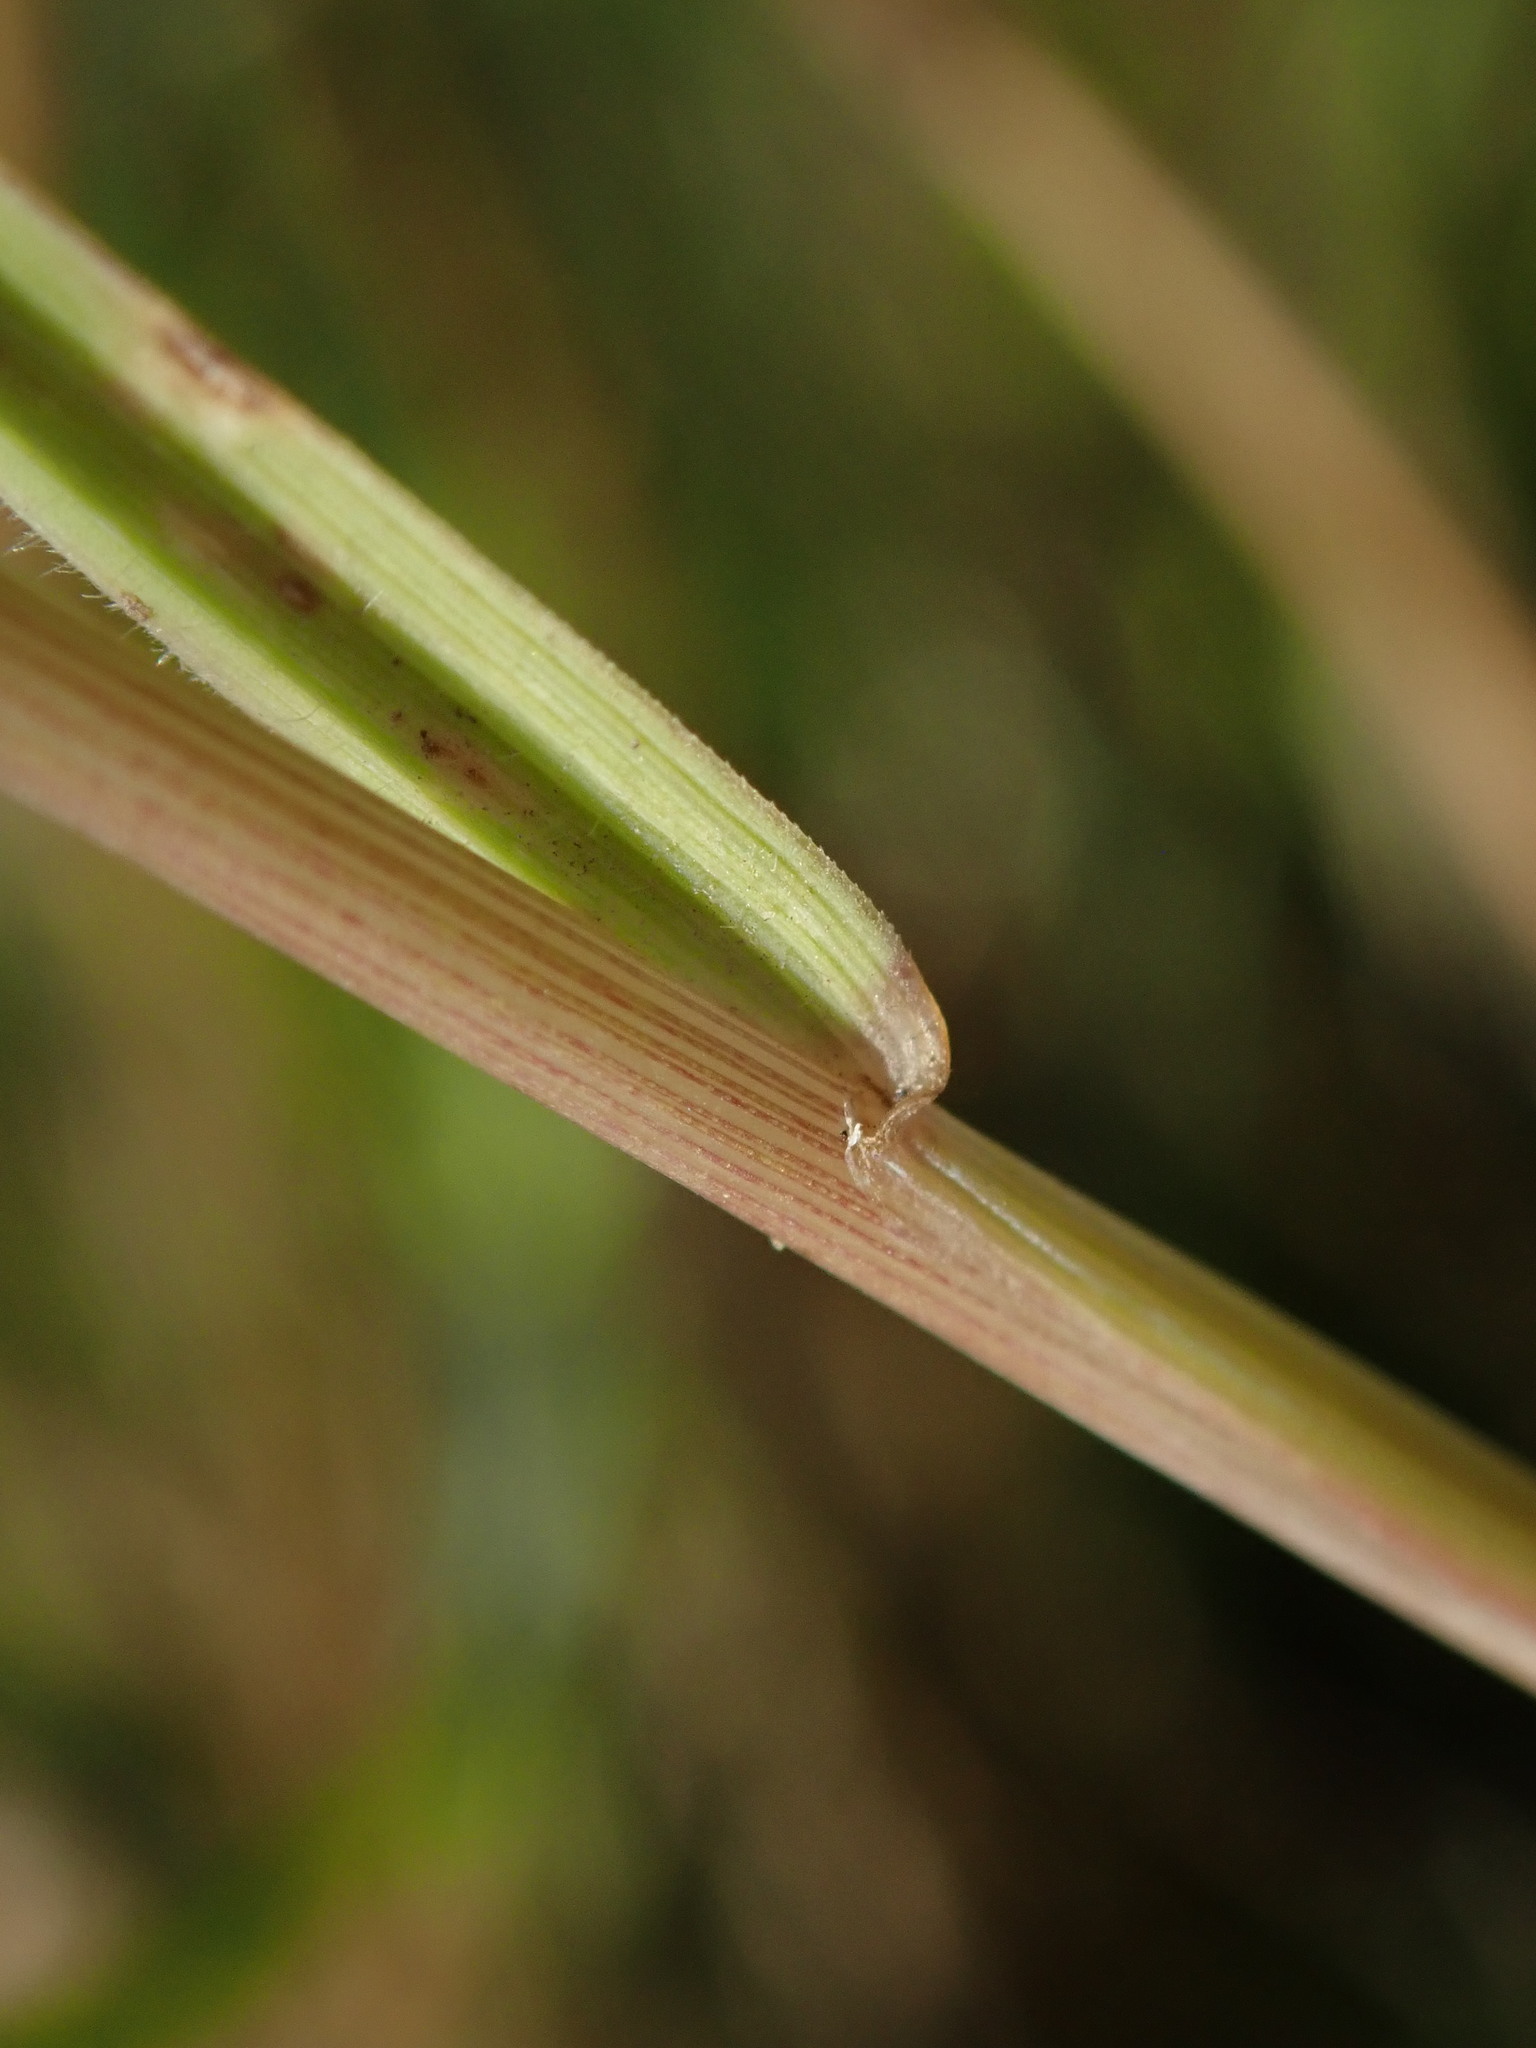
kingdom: Plantae
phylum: Tracheophyta
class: Liliopsida
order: Poales
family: Poaceae
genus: Hordeum
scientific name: Hordeum jubatum
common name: Foxtail barley
